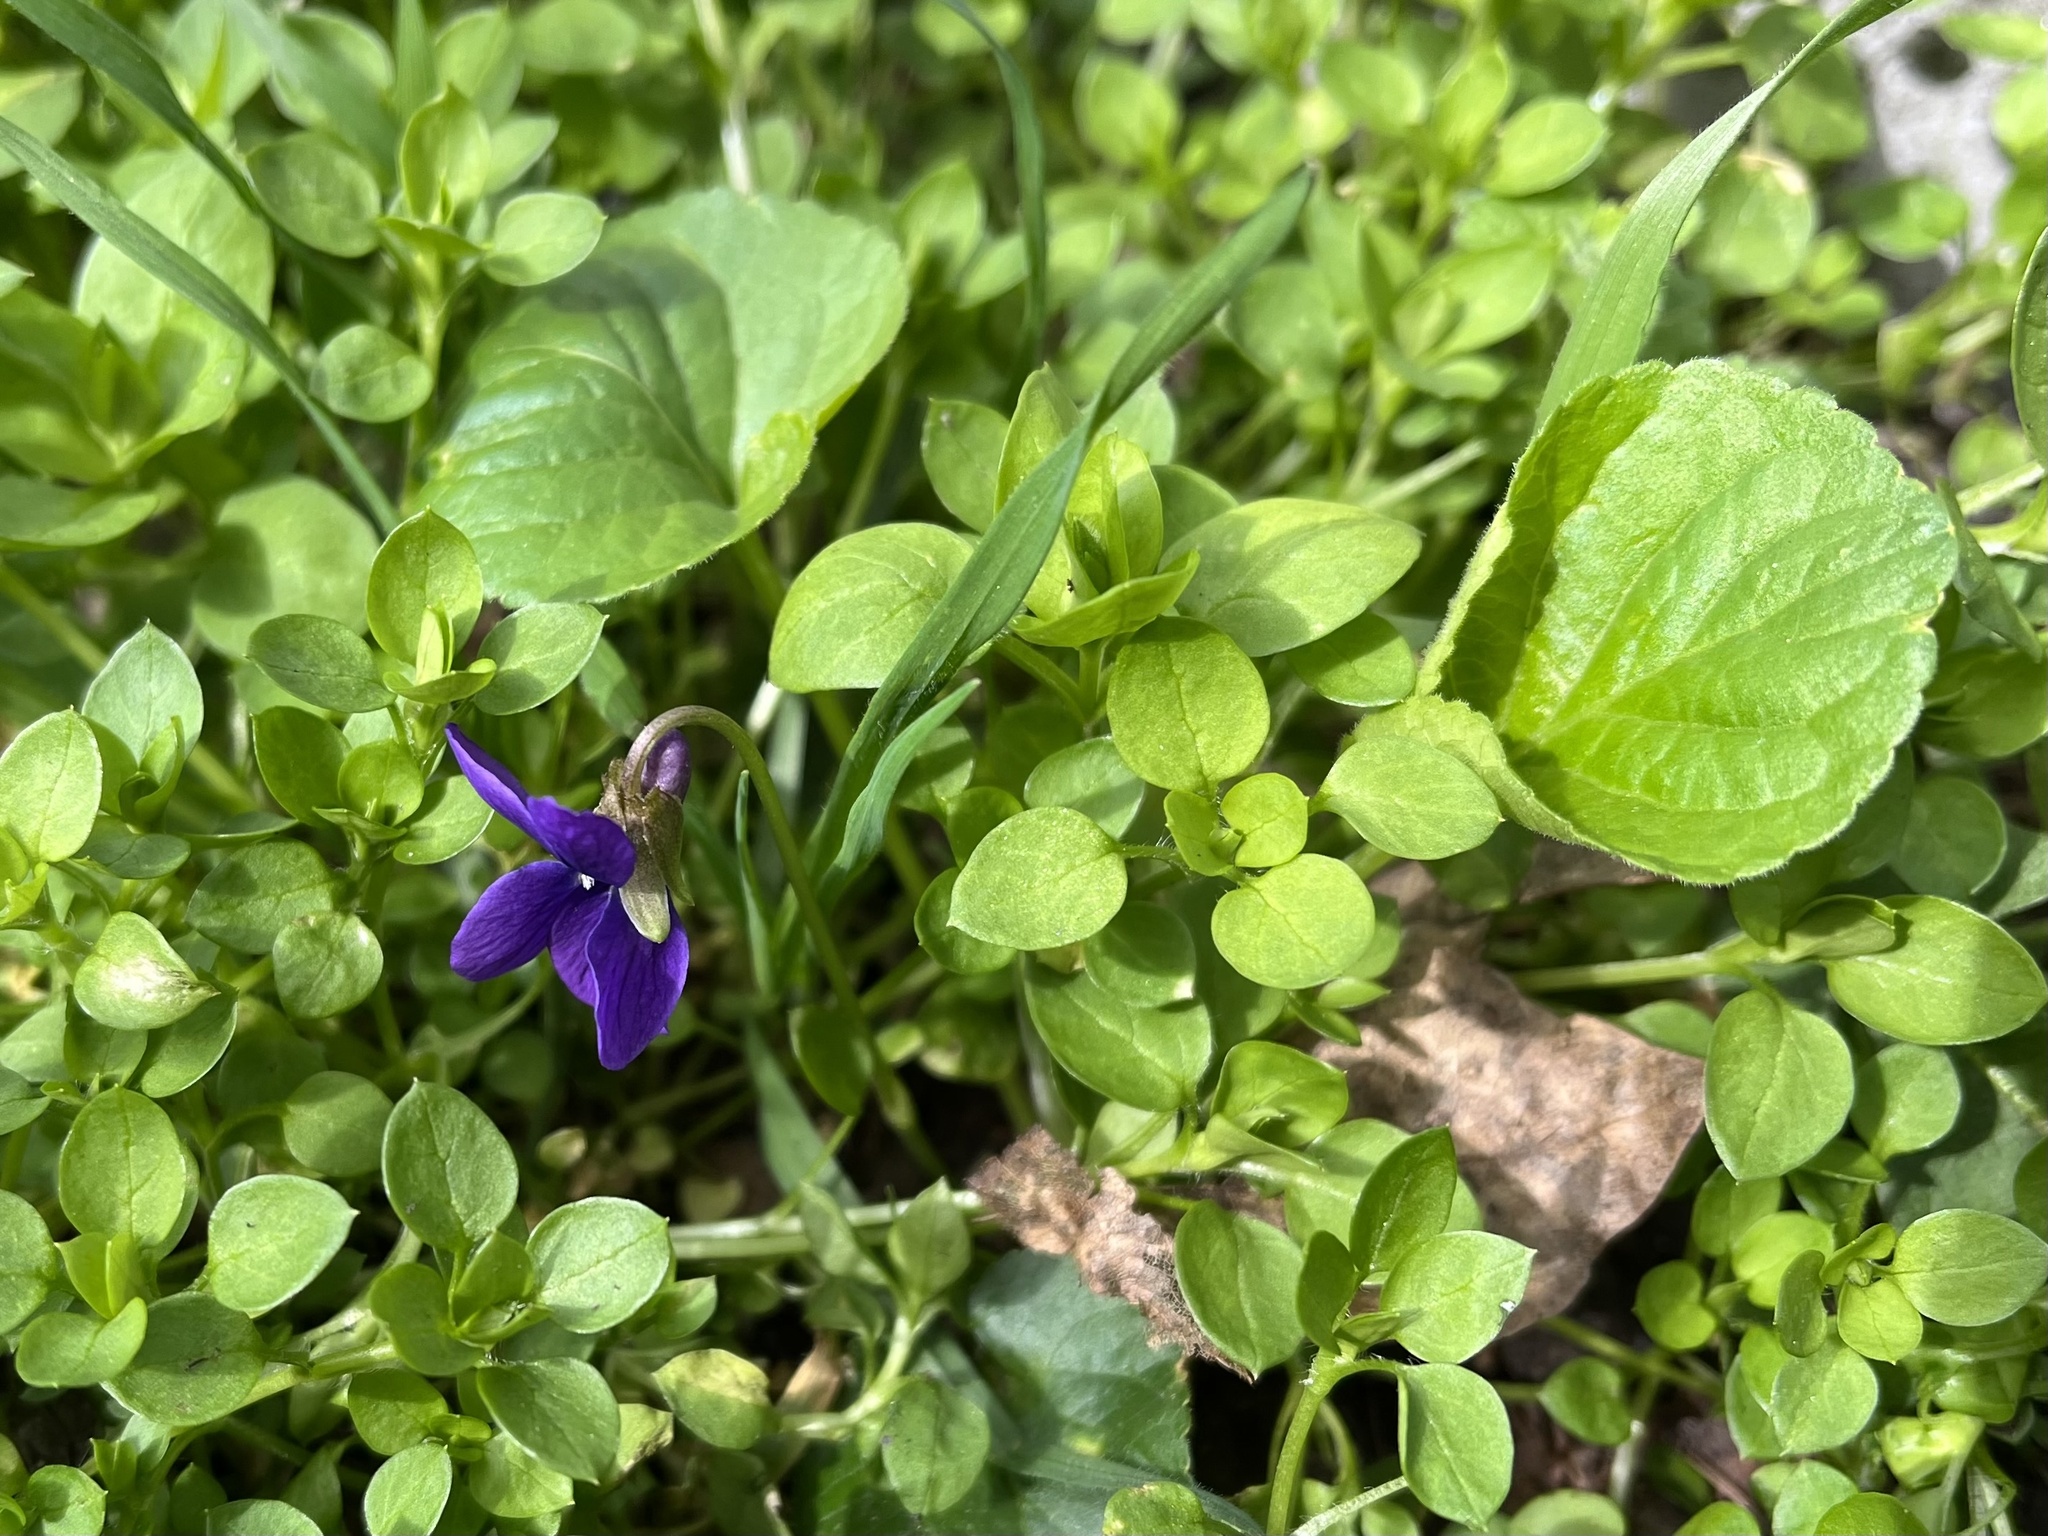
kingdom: Plantae
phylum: Tracheophyta
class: Magnoliopsida
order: Malpighiales
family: Violaceae
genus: Viola
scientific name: Viola odorata
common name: Sweet violet
